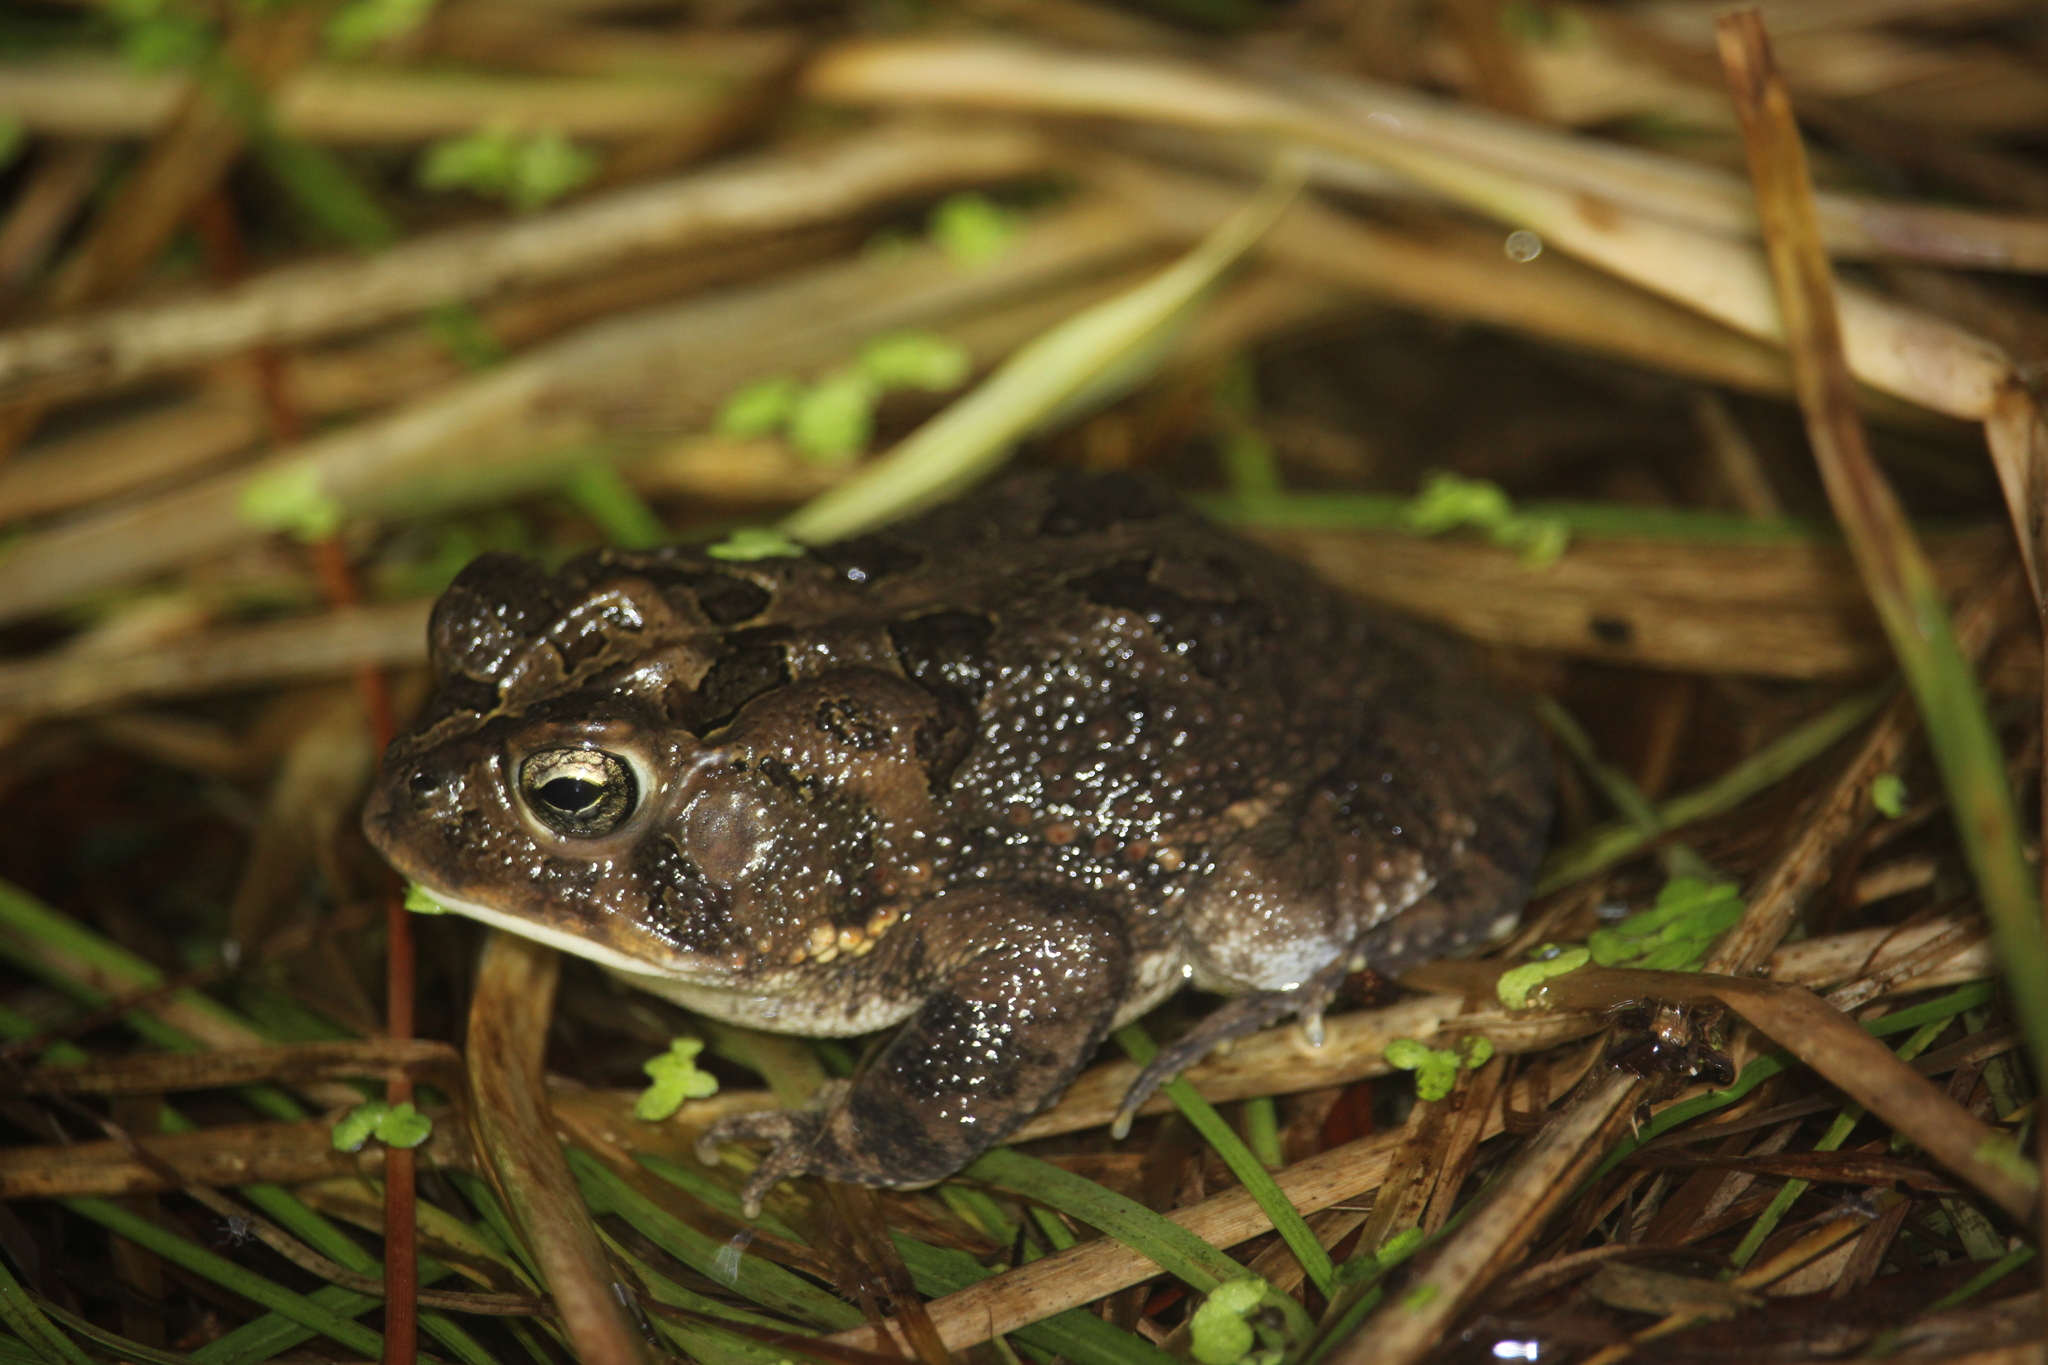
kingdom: Animalia
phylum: Chordata
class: Amphibia
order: Anura
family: Bufonidae
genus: Anaxyrus
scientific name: Anaxyrus terrestris
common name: Southern toad
